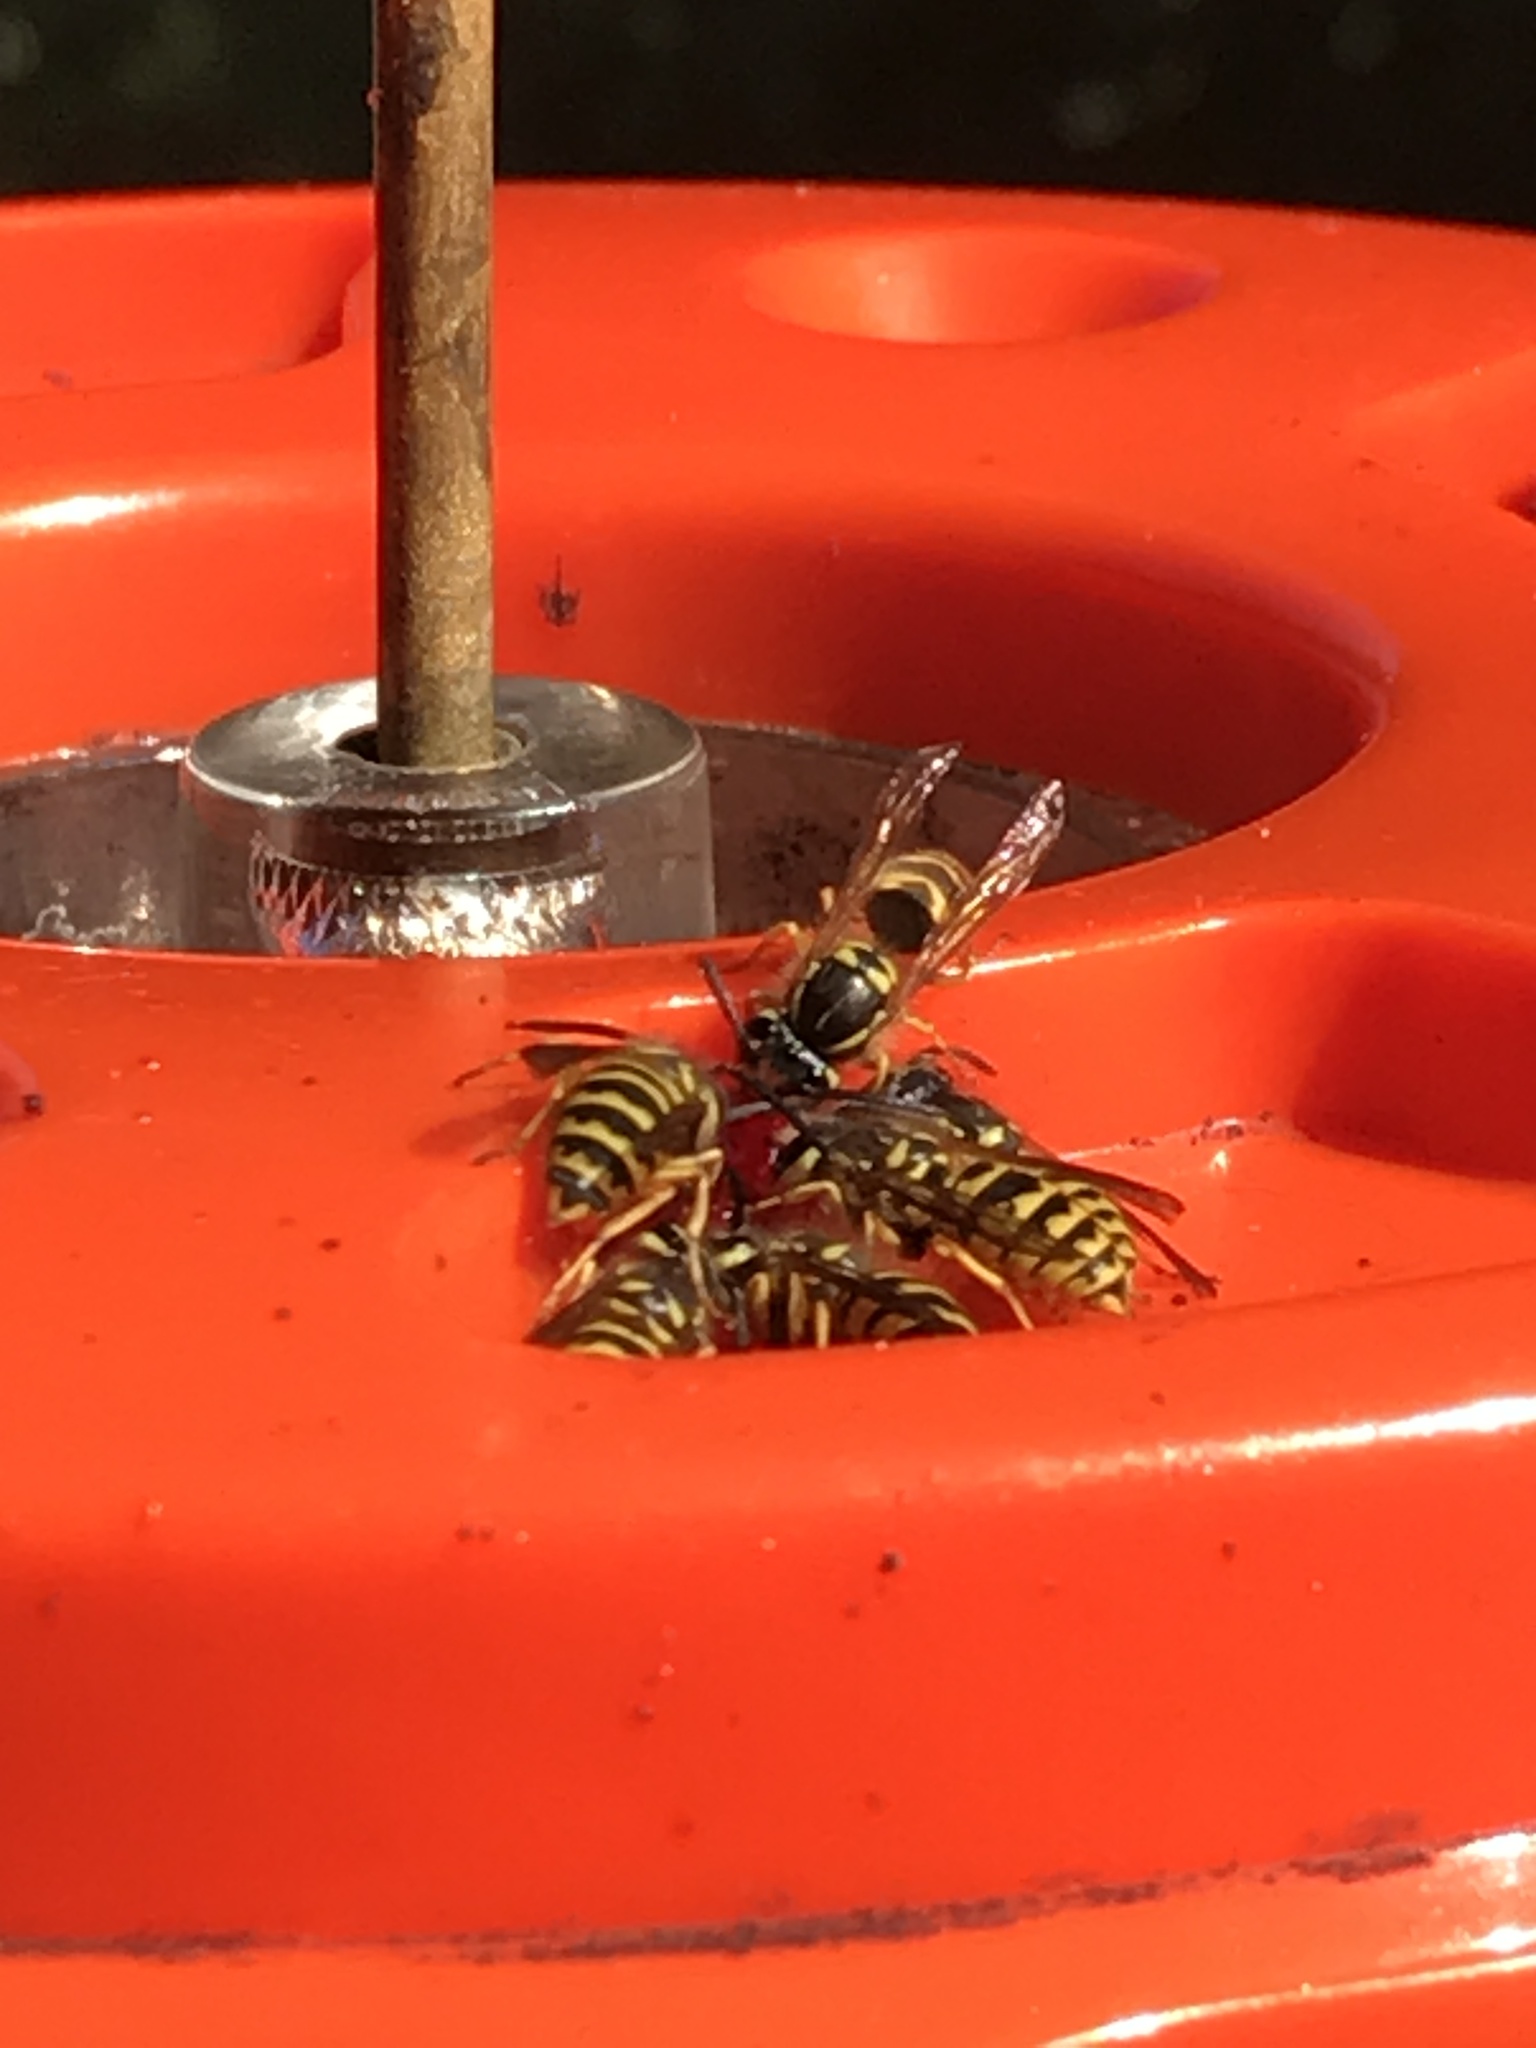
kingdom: Animalia
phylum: Arthropoda
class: Insecta
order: Hymenoptera
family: Vespidae
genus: Vespula
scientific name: Vespula flavopilosa
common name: Downy yellowjacket
